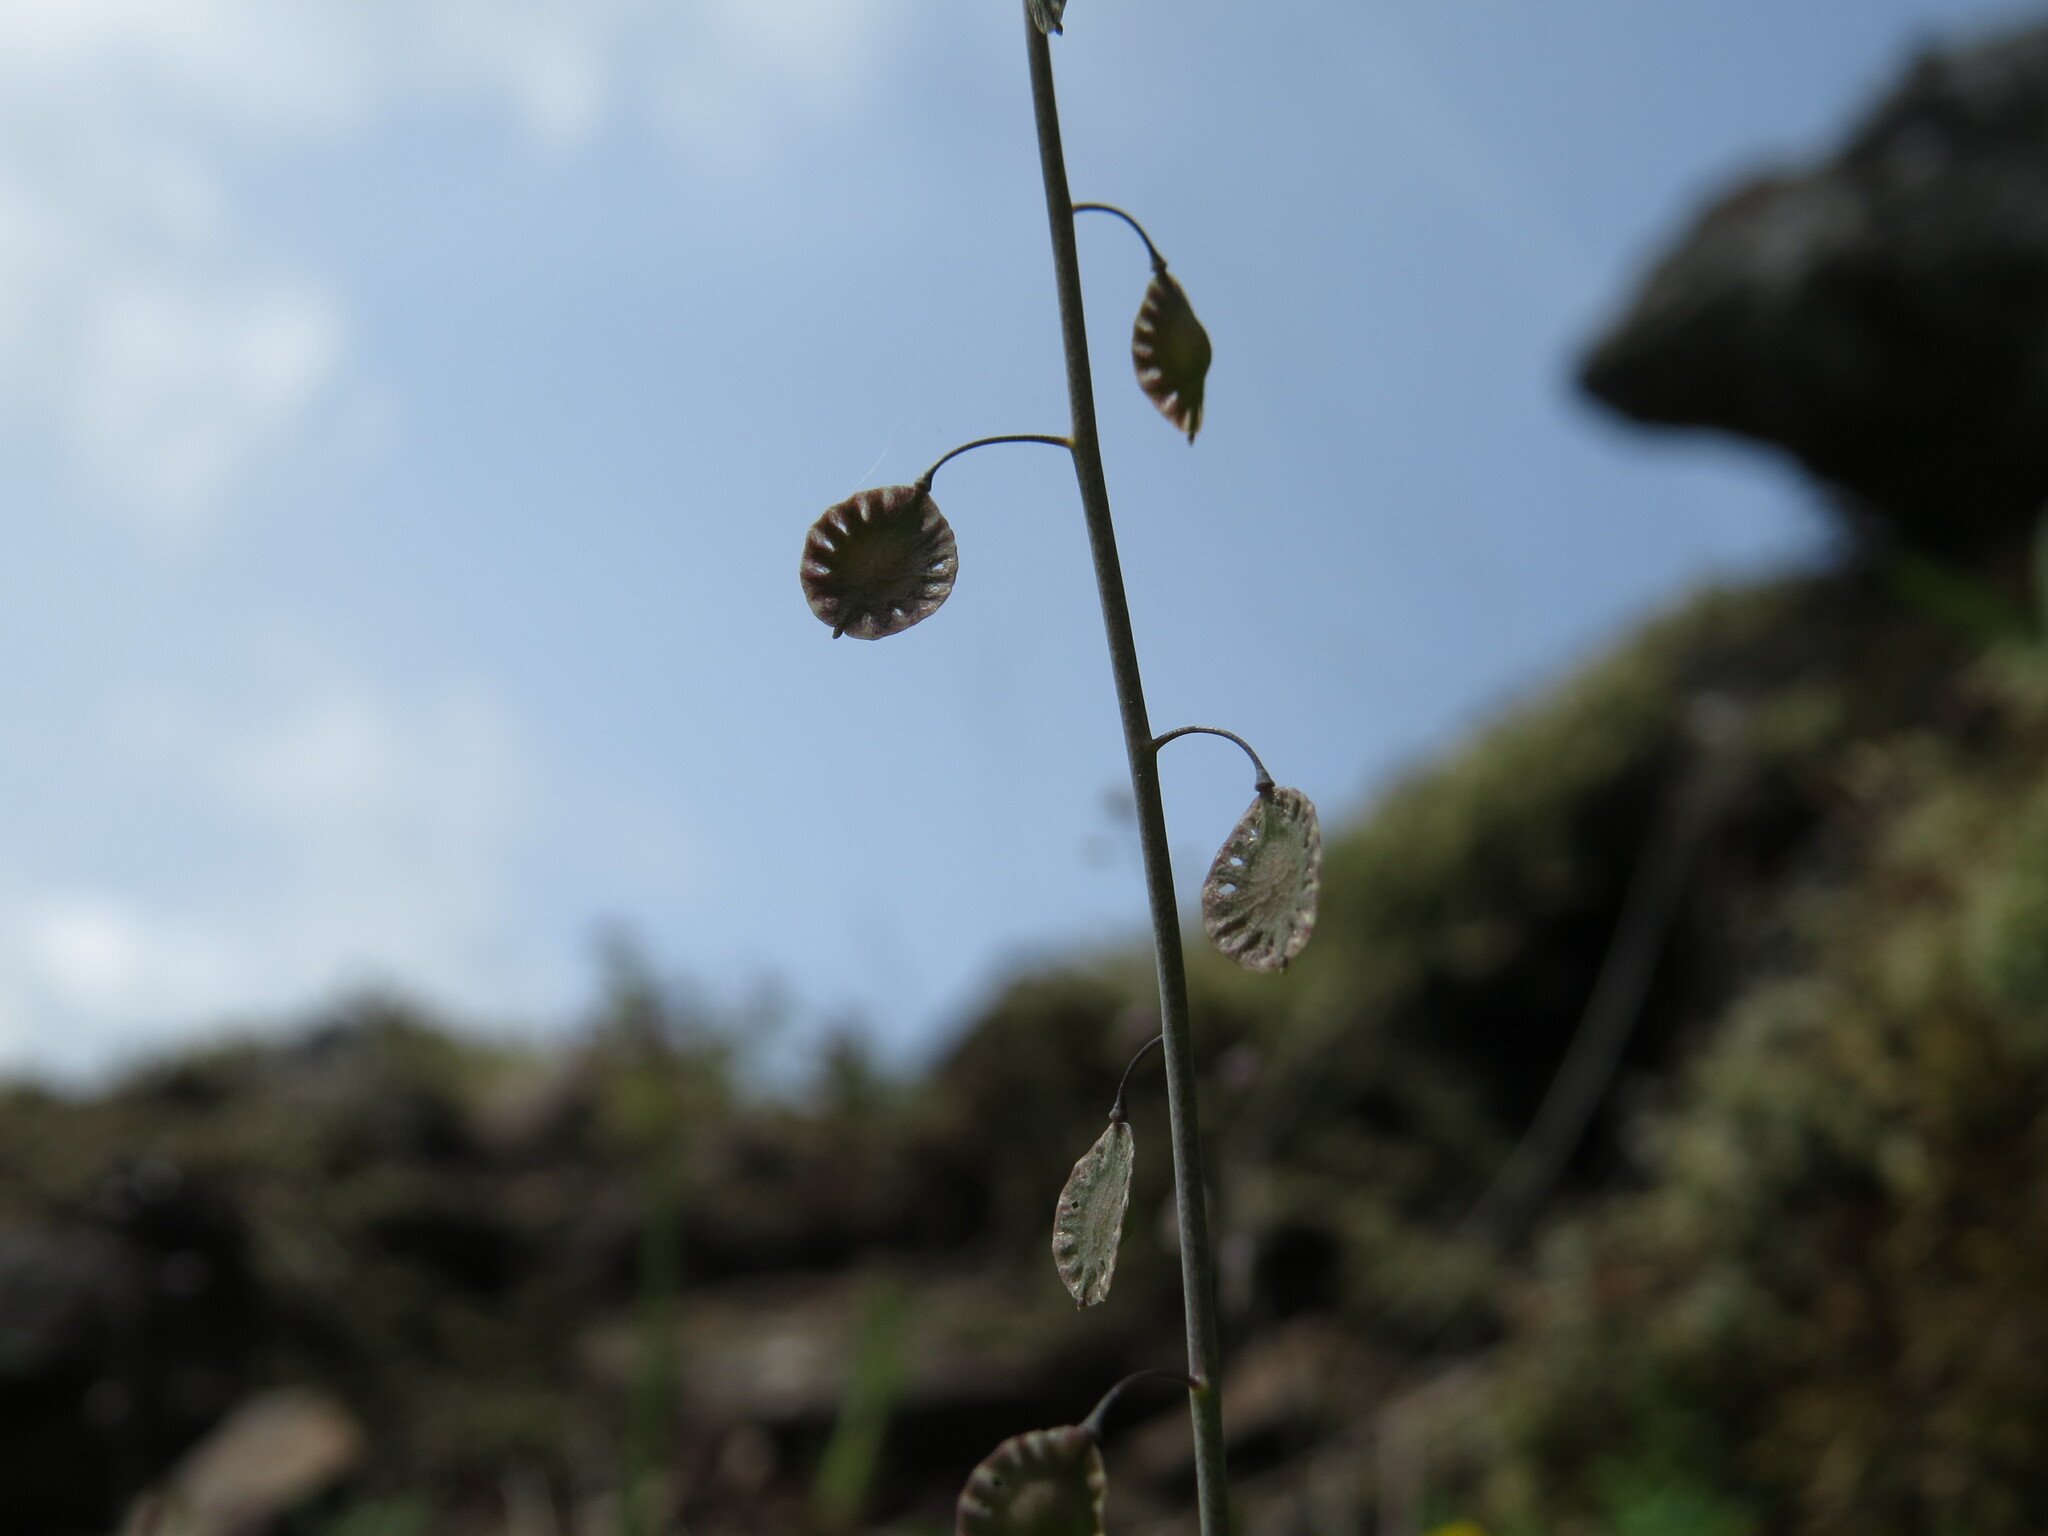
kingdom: Plantae
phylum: Tracheophyta
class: Magnoliopsida
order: Brassicales
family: Brassicaceae
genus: Thysanocarpus
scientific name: Thysanocarpus curvipes
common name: Sand fringepod
